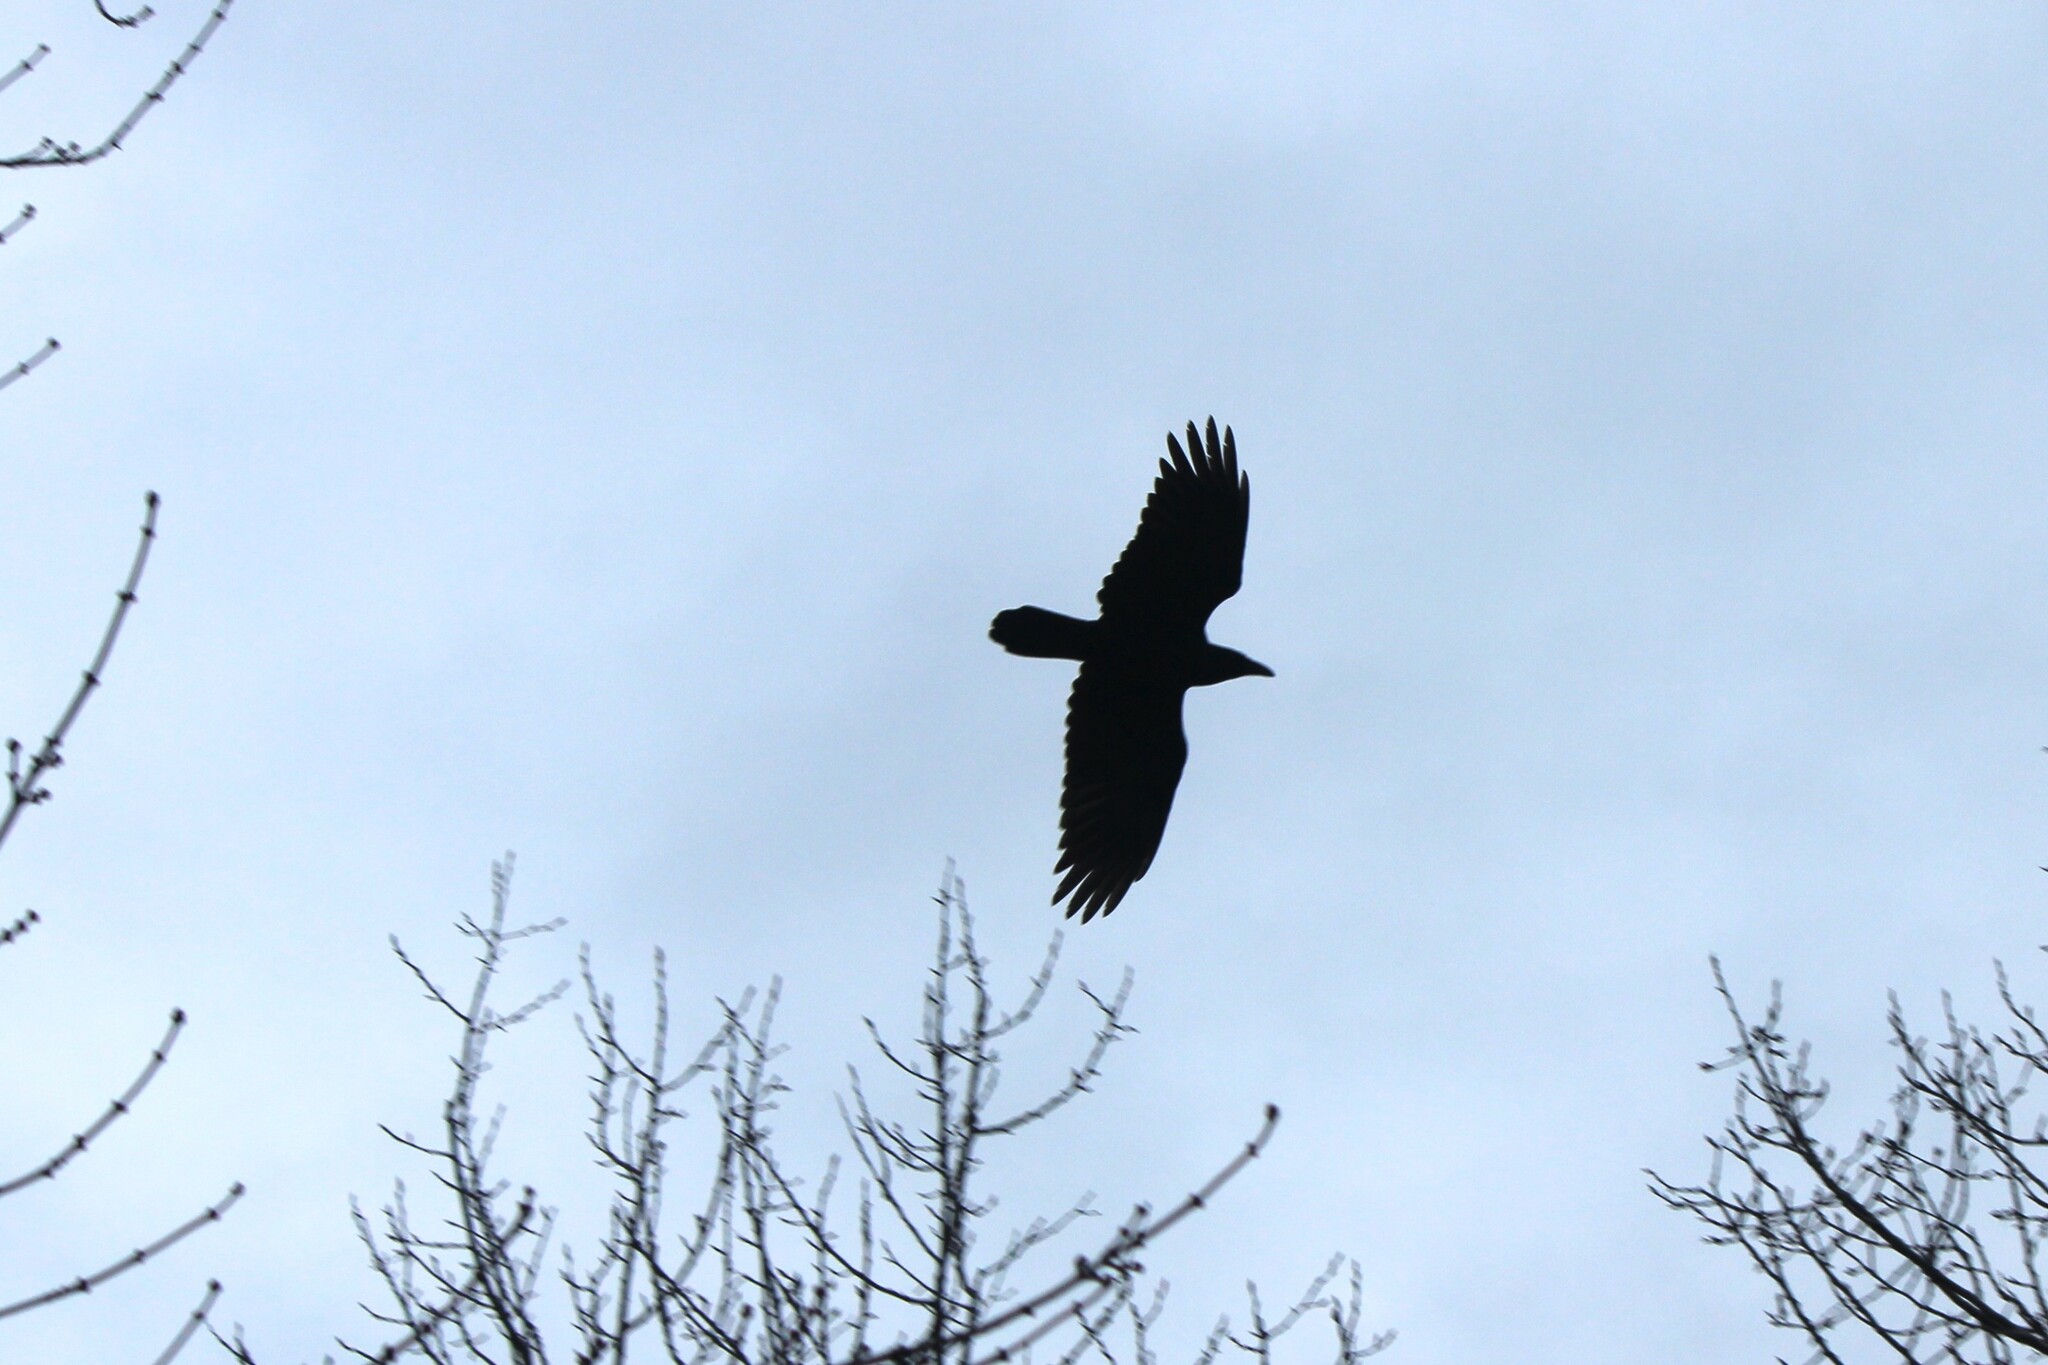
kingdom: Animalia
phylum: Chordata
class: Aves
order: Passeriformes
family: Corvidae
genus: Corvus
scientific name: Corvus corax
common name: Common raven
